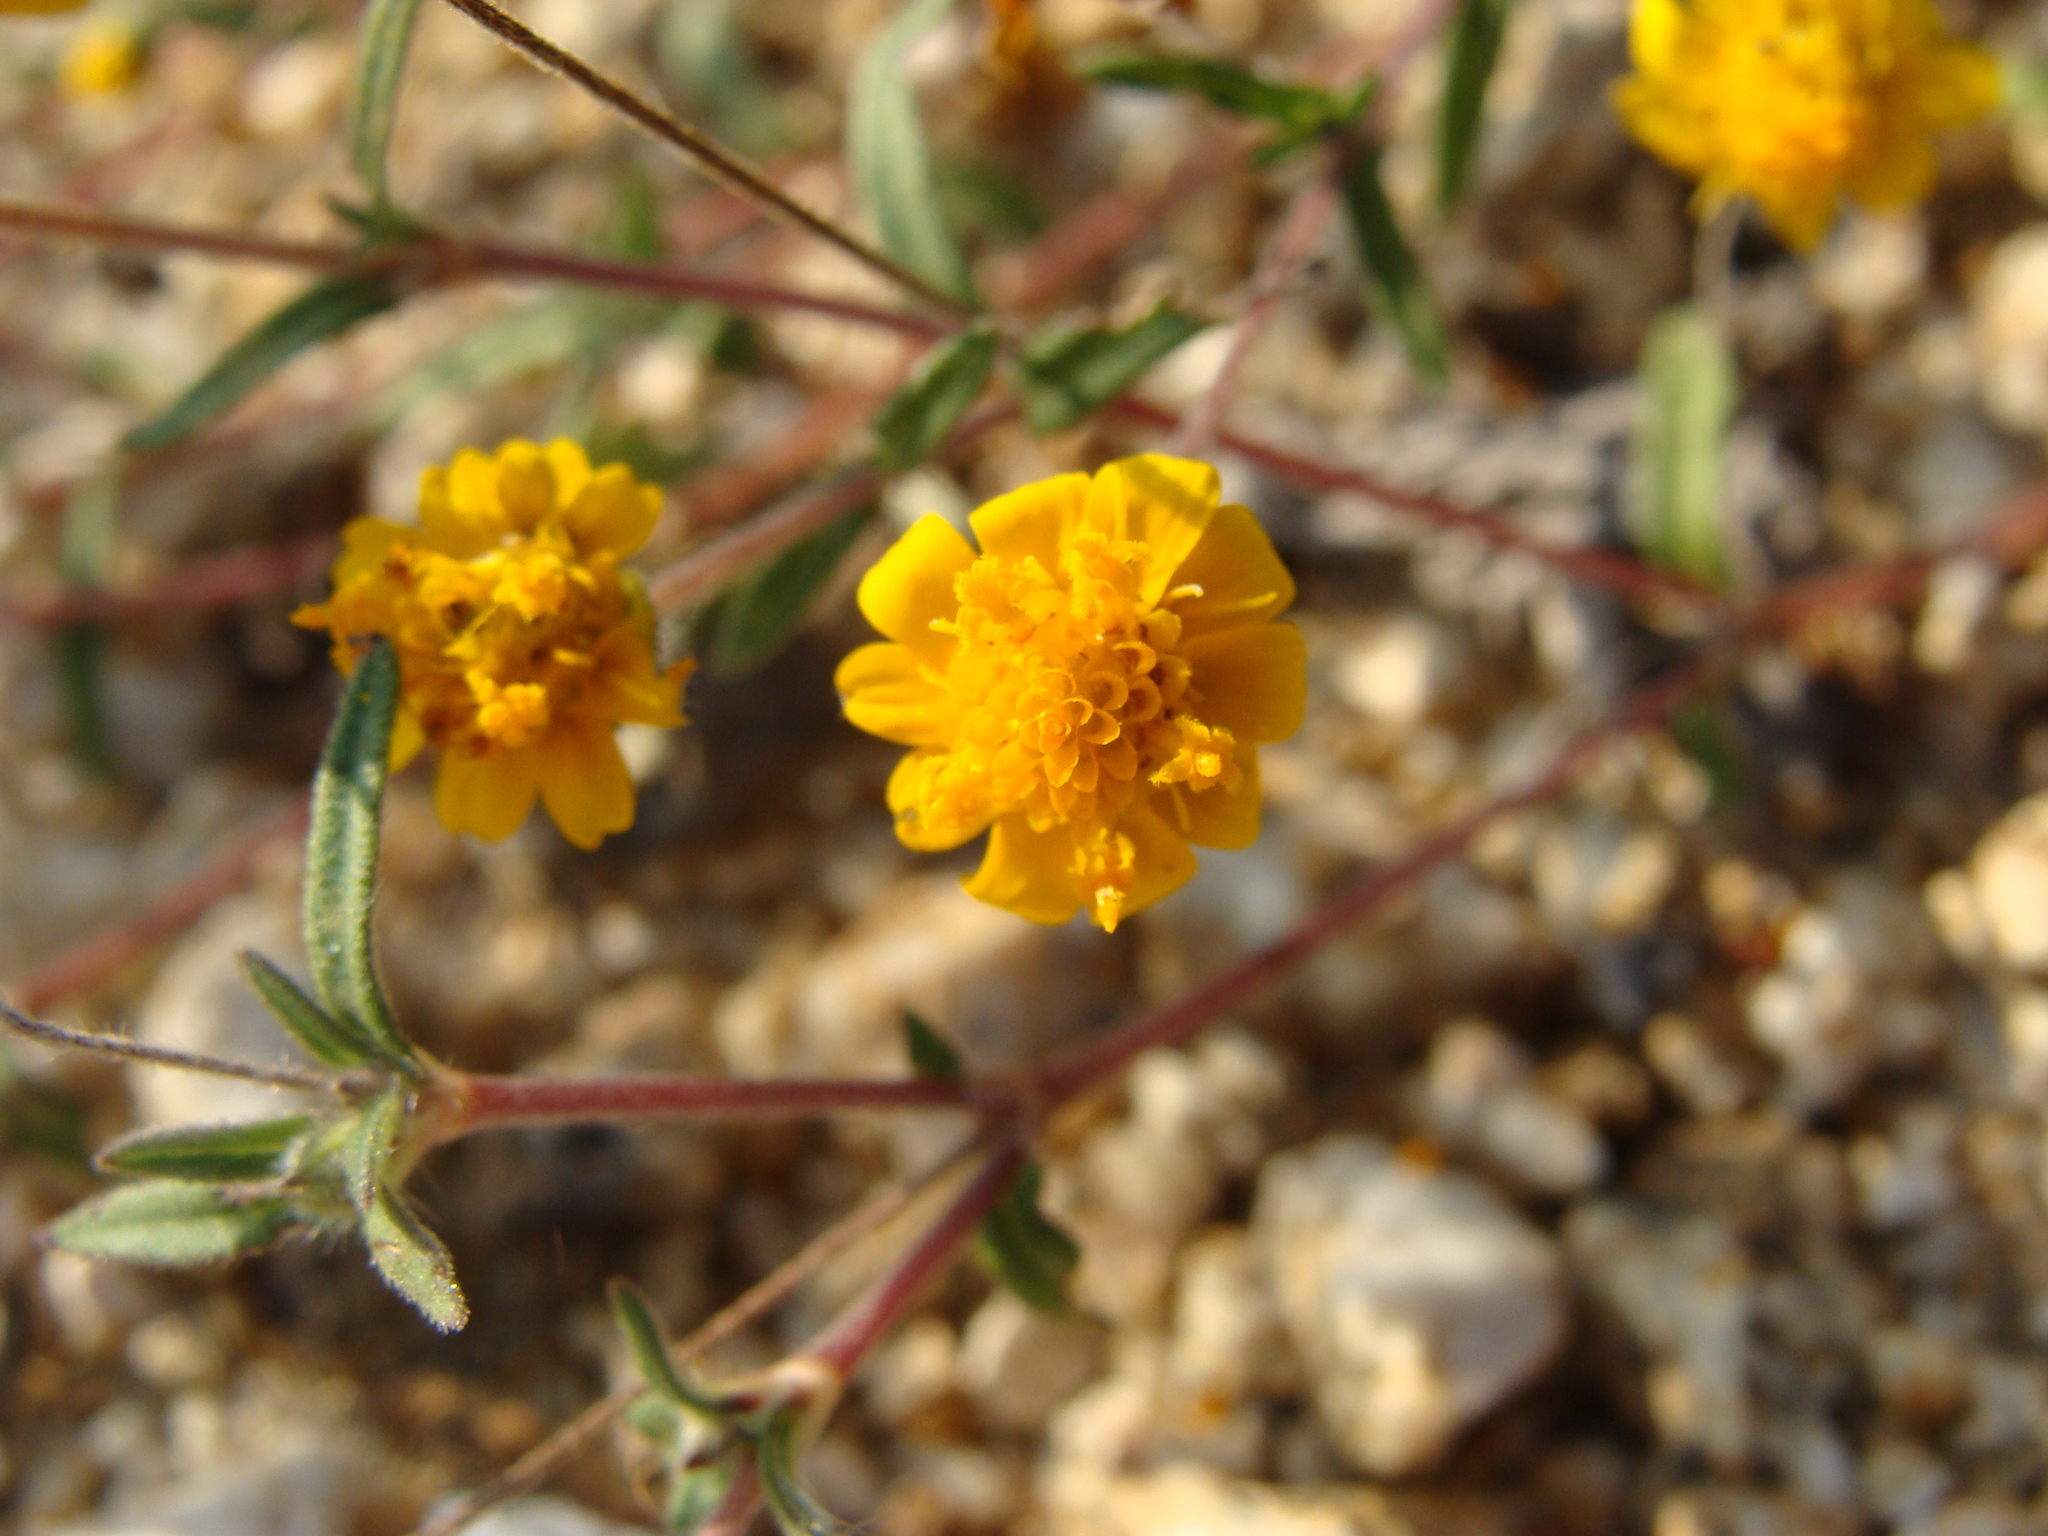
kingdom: Plantae
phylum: Tracheophyta
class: Magnoliopsida
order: Asterales
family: Asteraceae
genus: Melampodium
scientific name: Melampodium americanum
